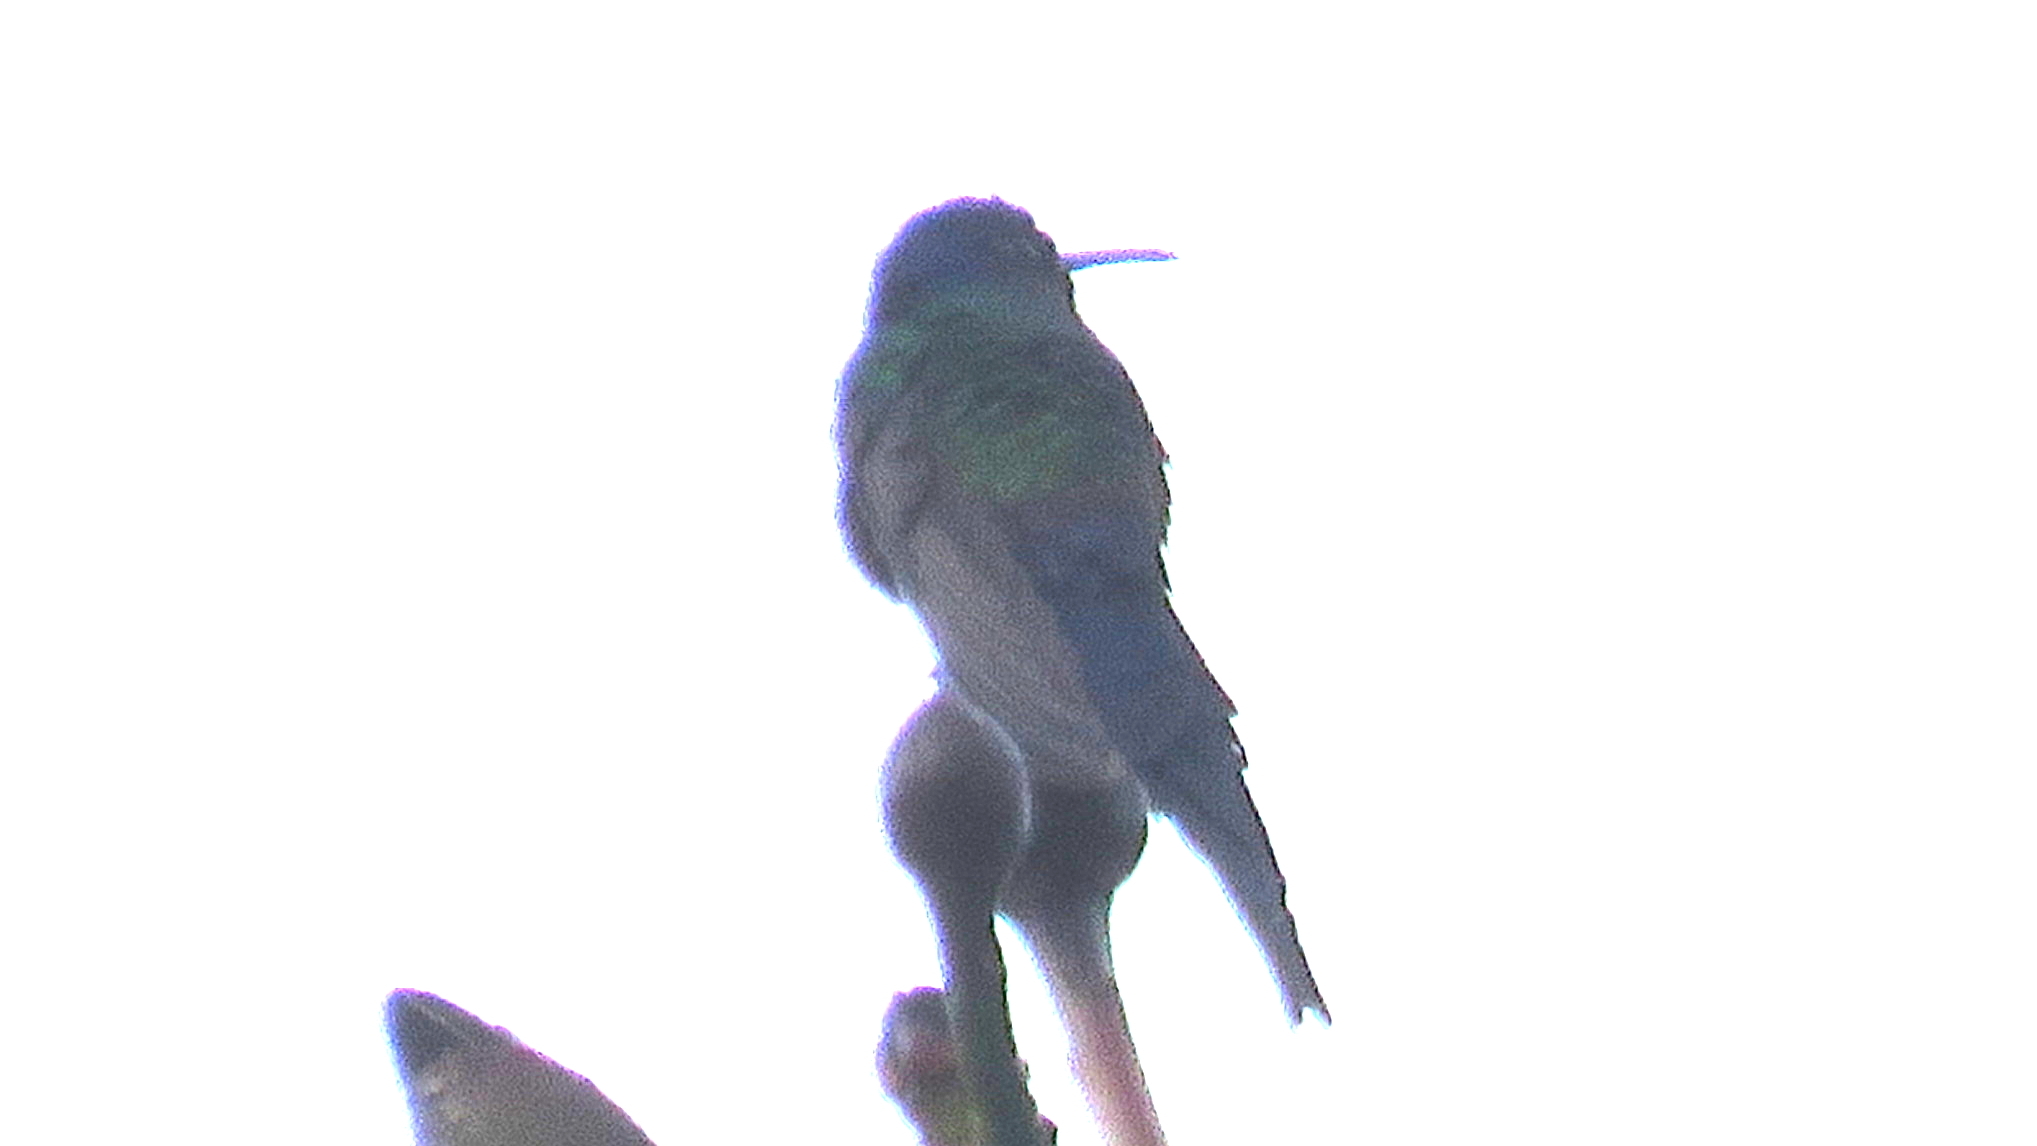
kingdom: Animalia
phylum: Chordata
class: Aves
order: Apodiformes
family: Trochilidae
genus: Eupetomena
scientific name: Eupetomena macroura
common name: Swallow-tailed hummingbird
